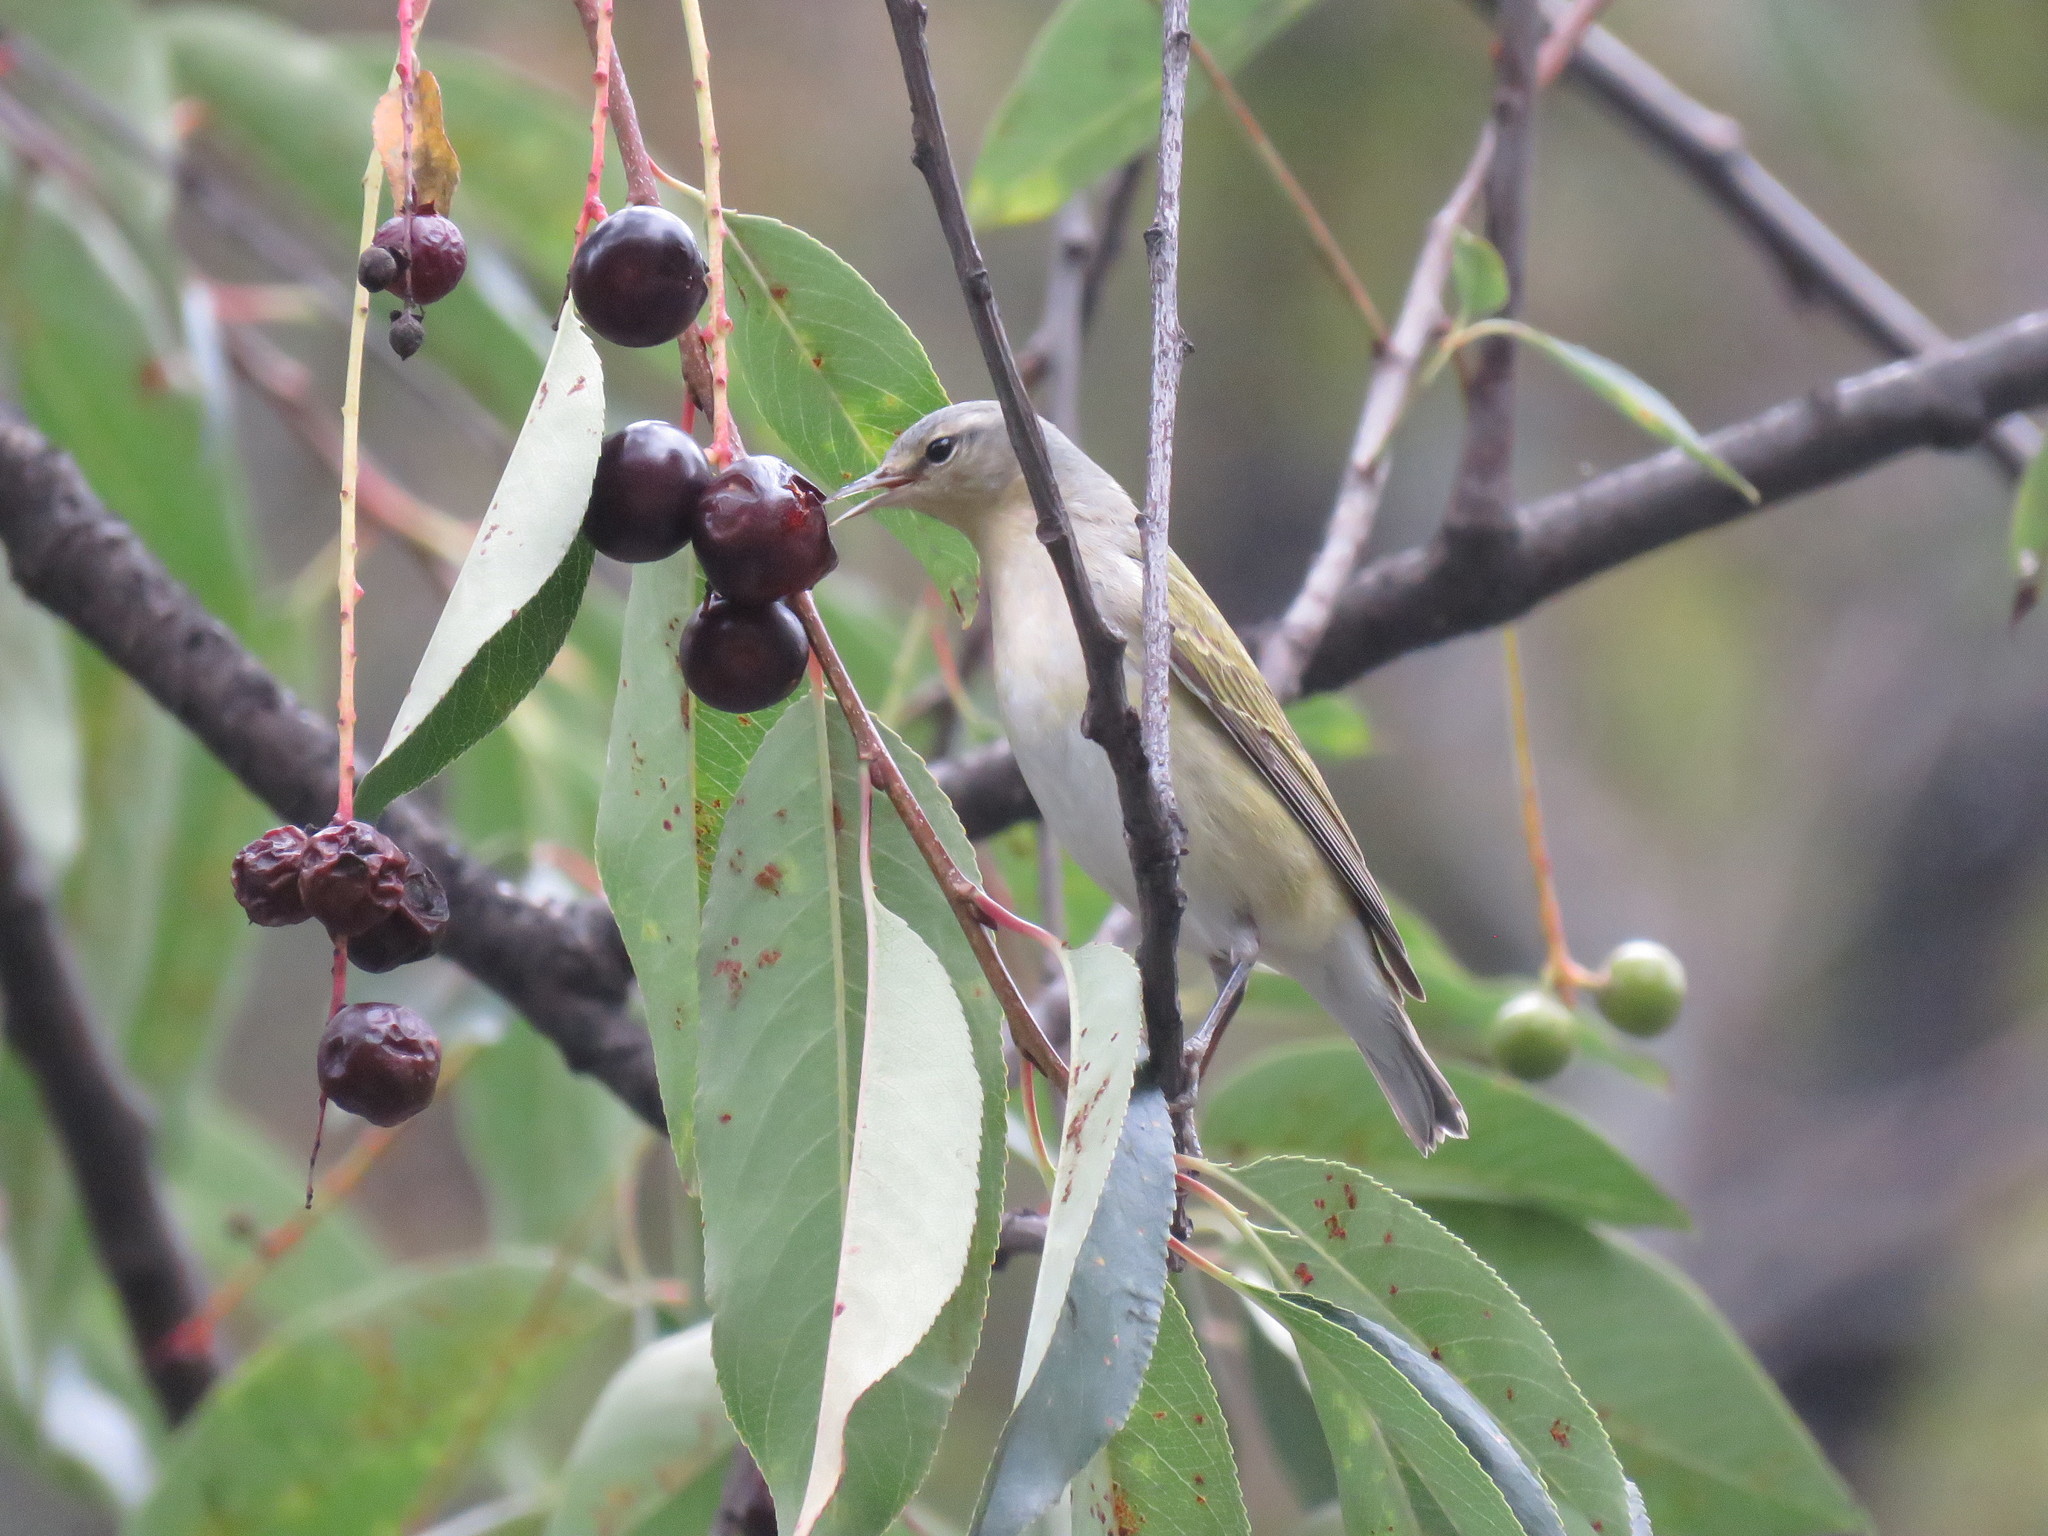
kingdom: Animalia
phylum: Chordata
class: Aves
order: Passeriformes
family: Parulidae
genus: Leiothlypis
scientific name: Leiothlypis peregrina
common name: Tennessee warbler
